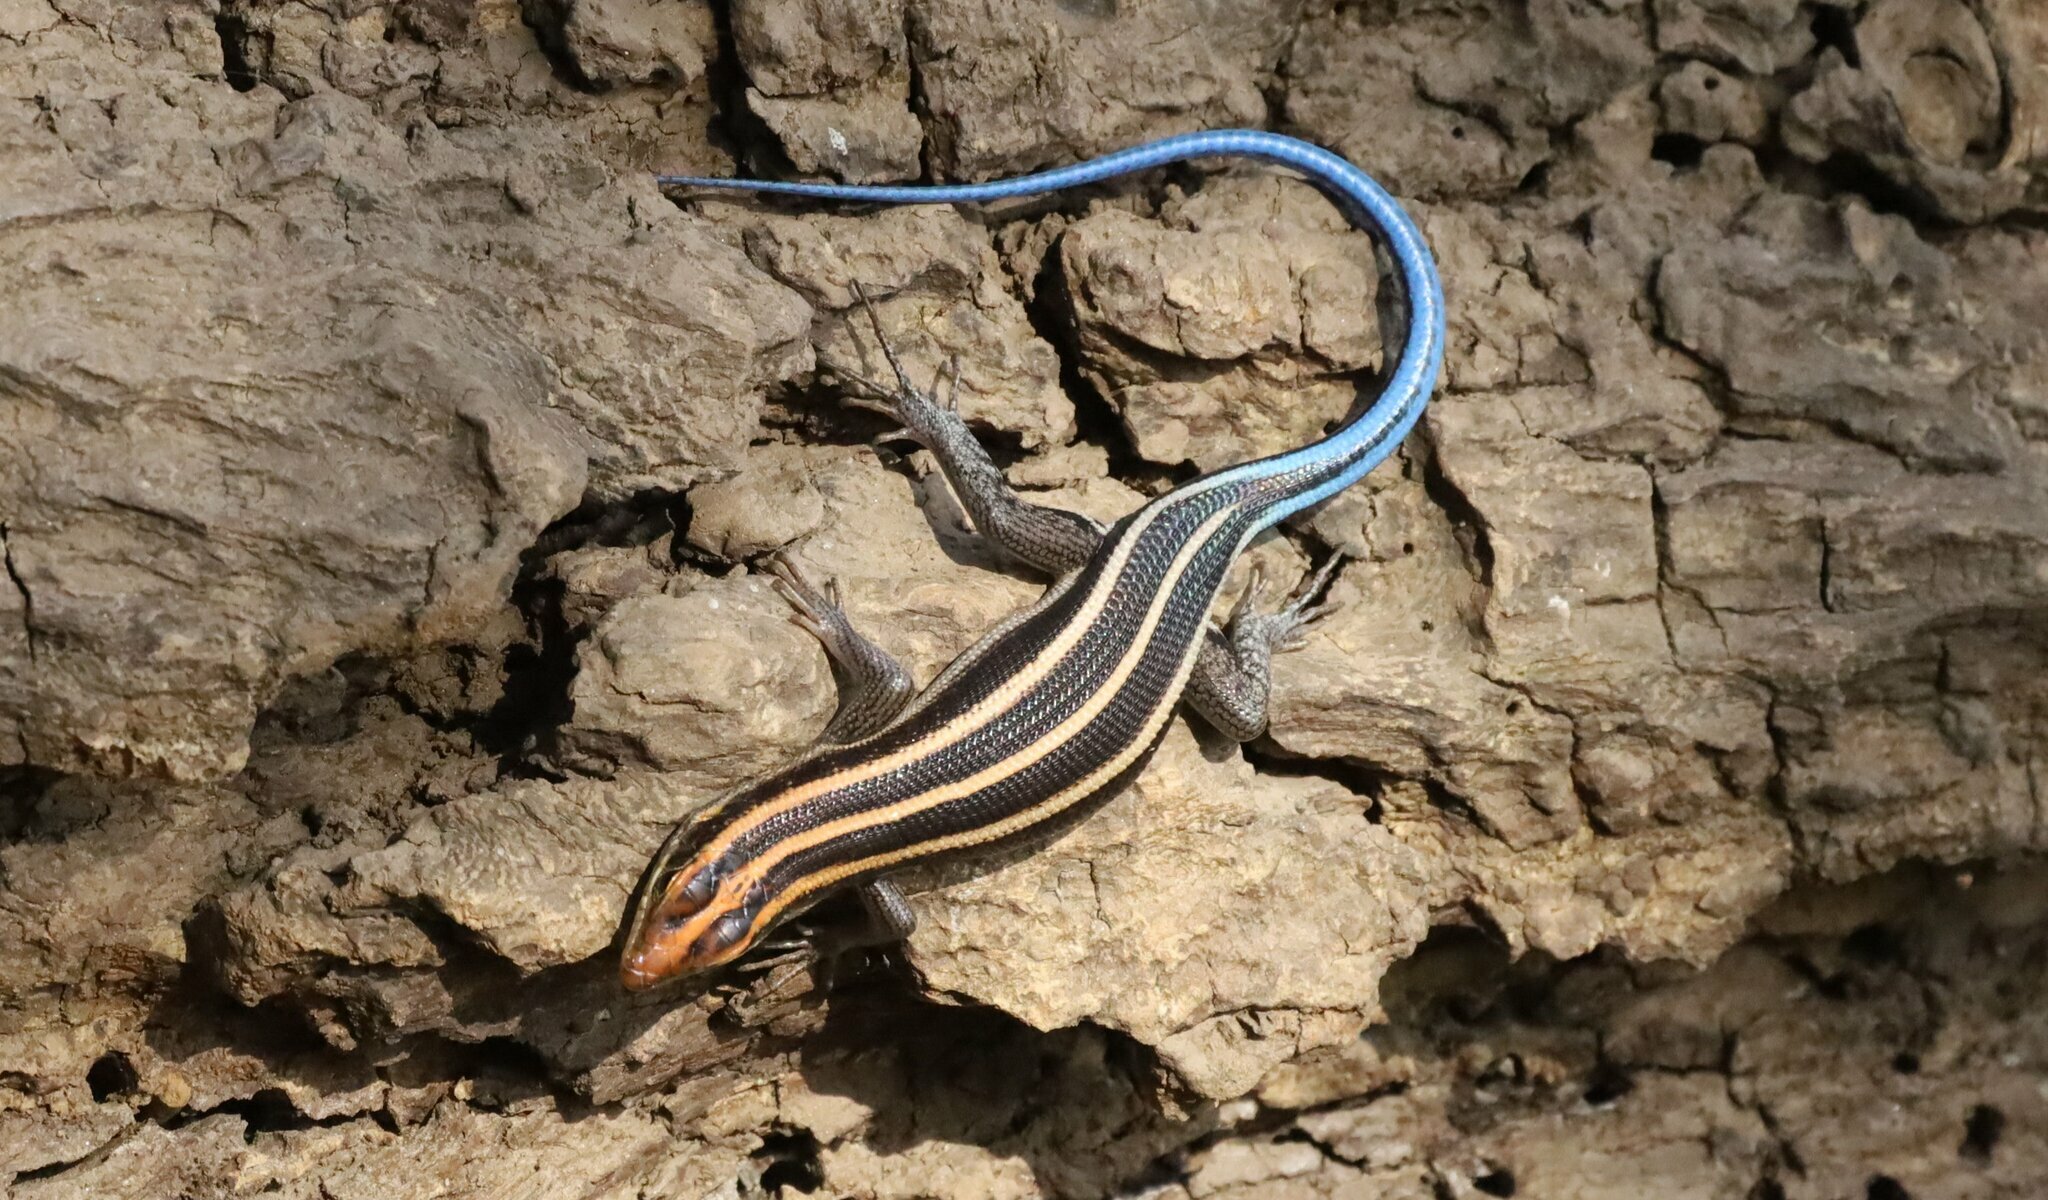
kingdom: Animalia
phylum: Chordata
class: Squamata
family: Scincidae
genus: Trachylepis
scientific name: Trachylepis margaritifera
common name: Rainbow skink
